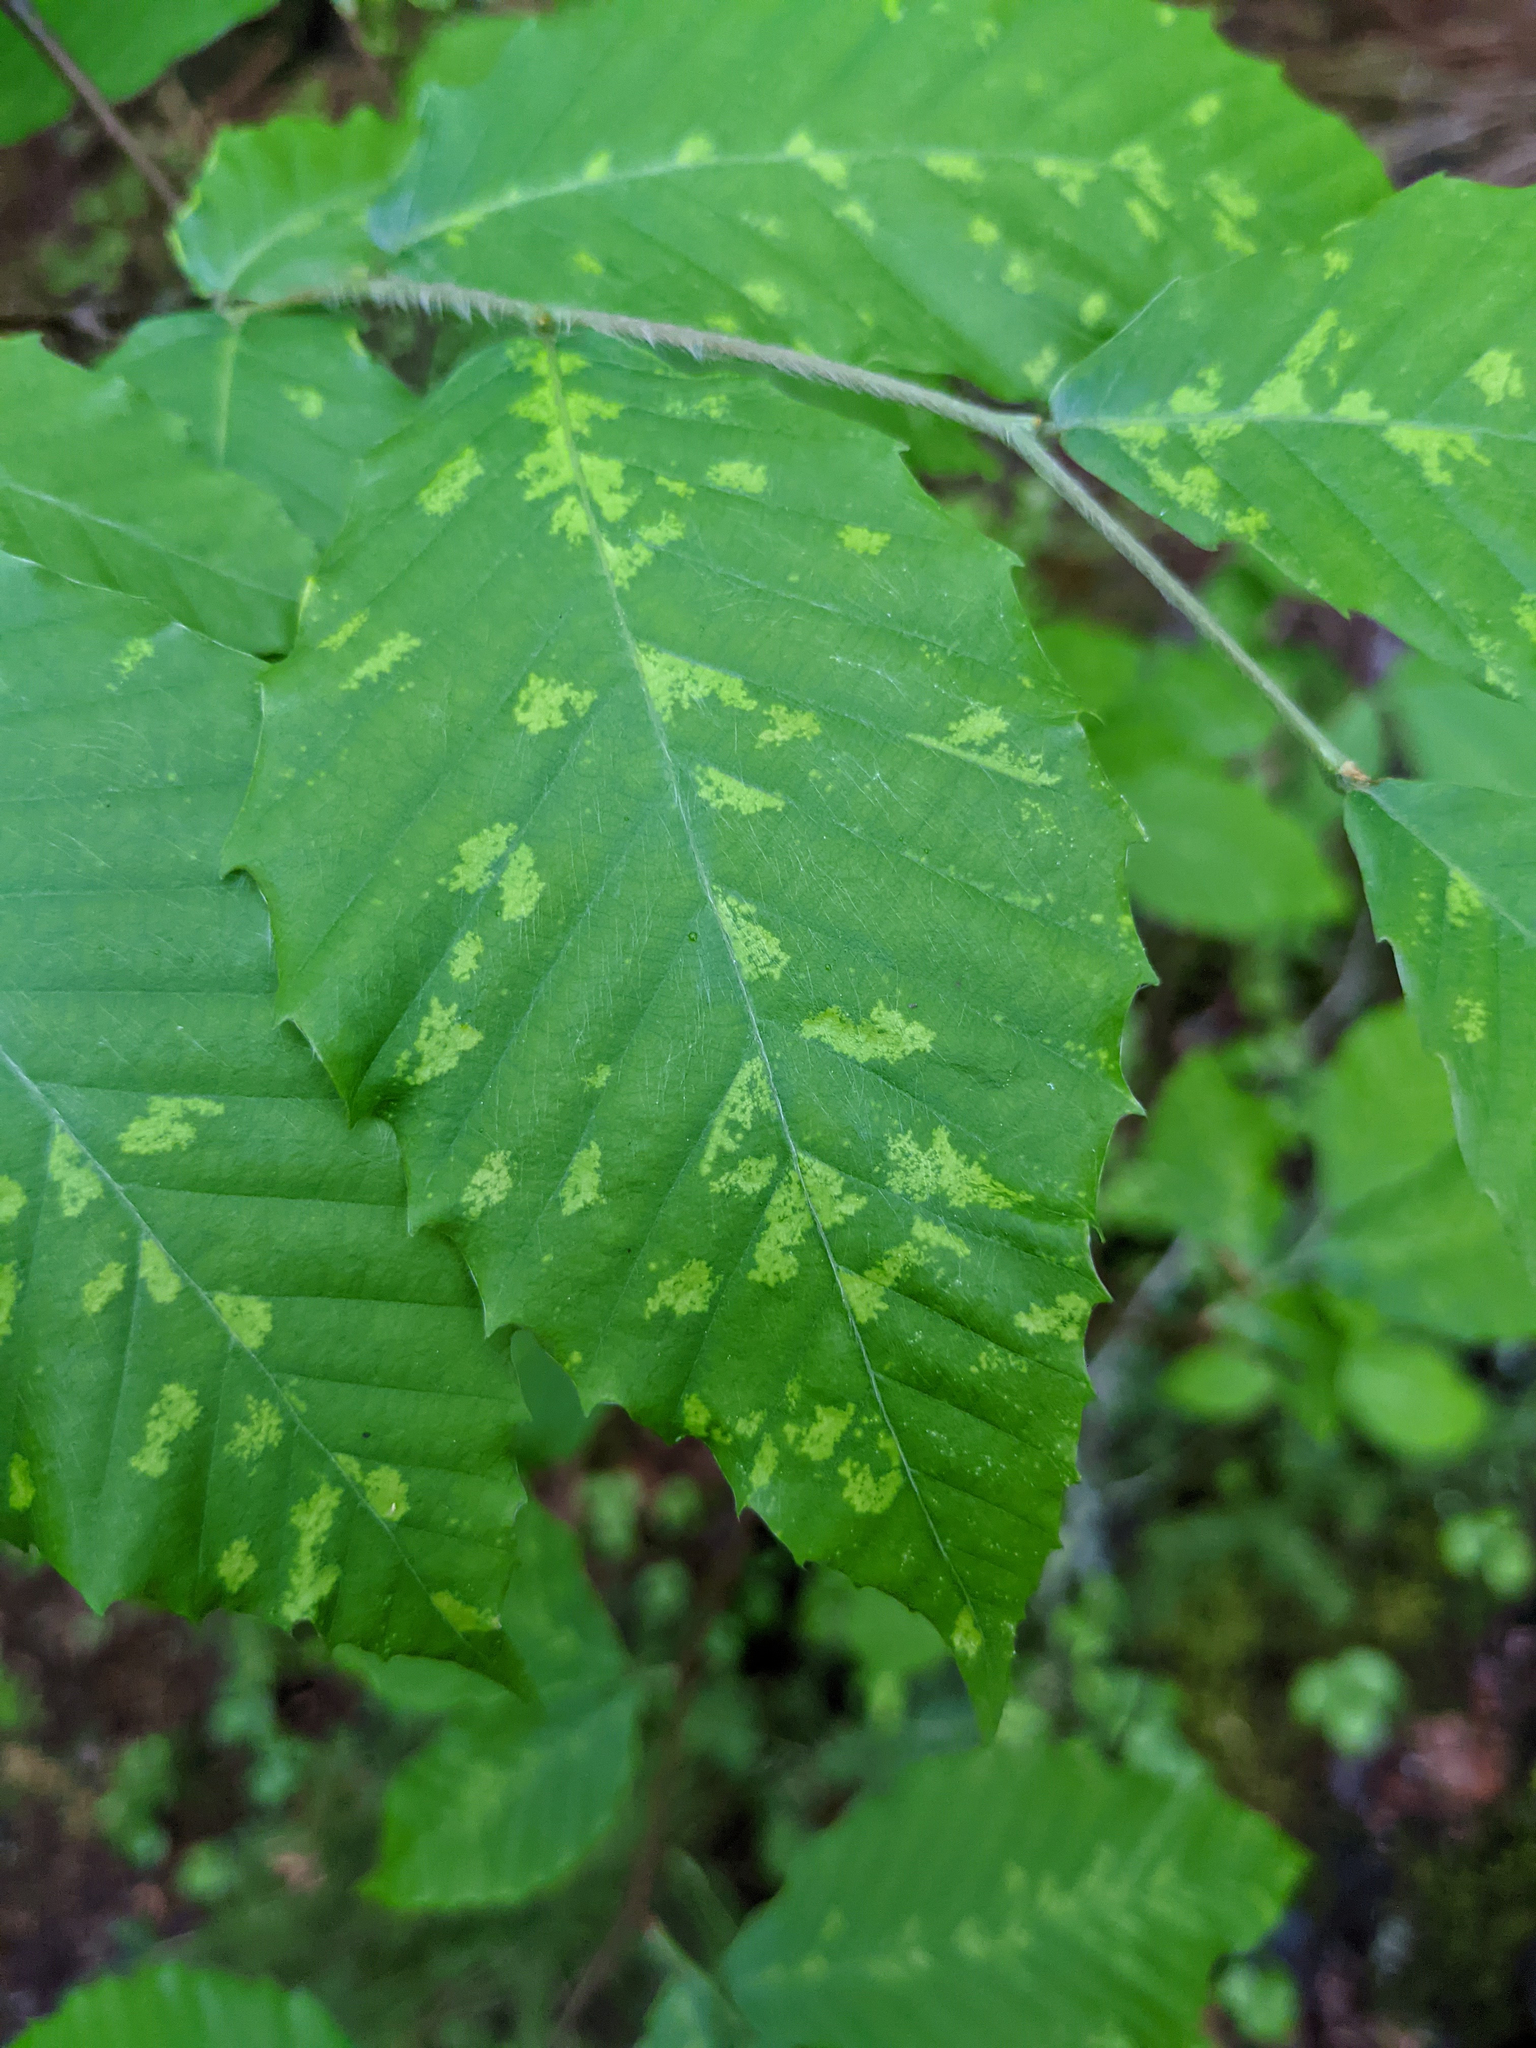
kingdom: Animalia
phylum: Arthropoda
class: Arachnida
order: Trombidiformes
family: Eriophyidae
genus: Acalitus
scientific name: Acalitus
